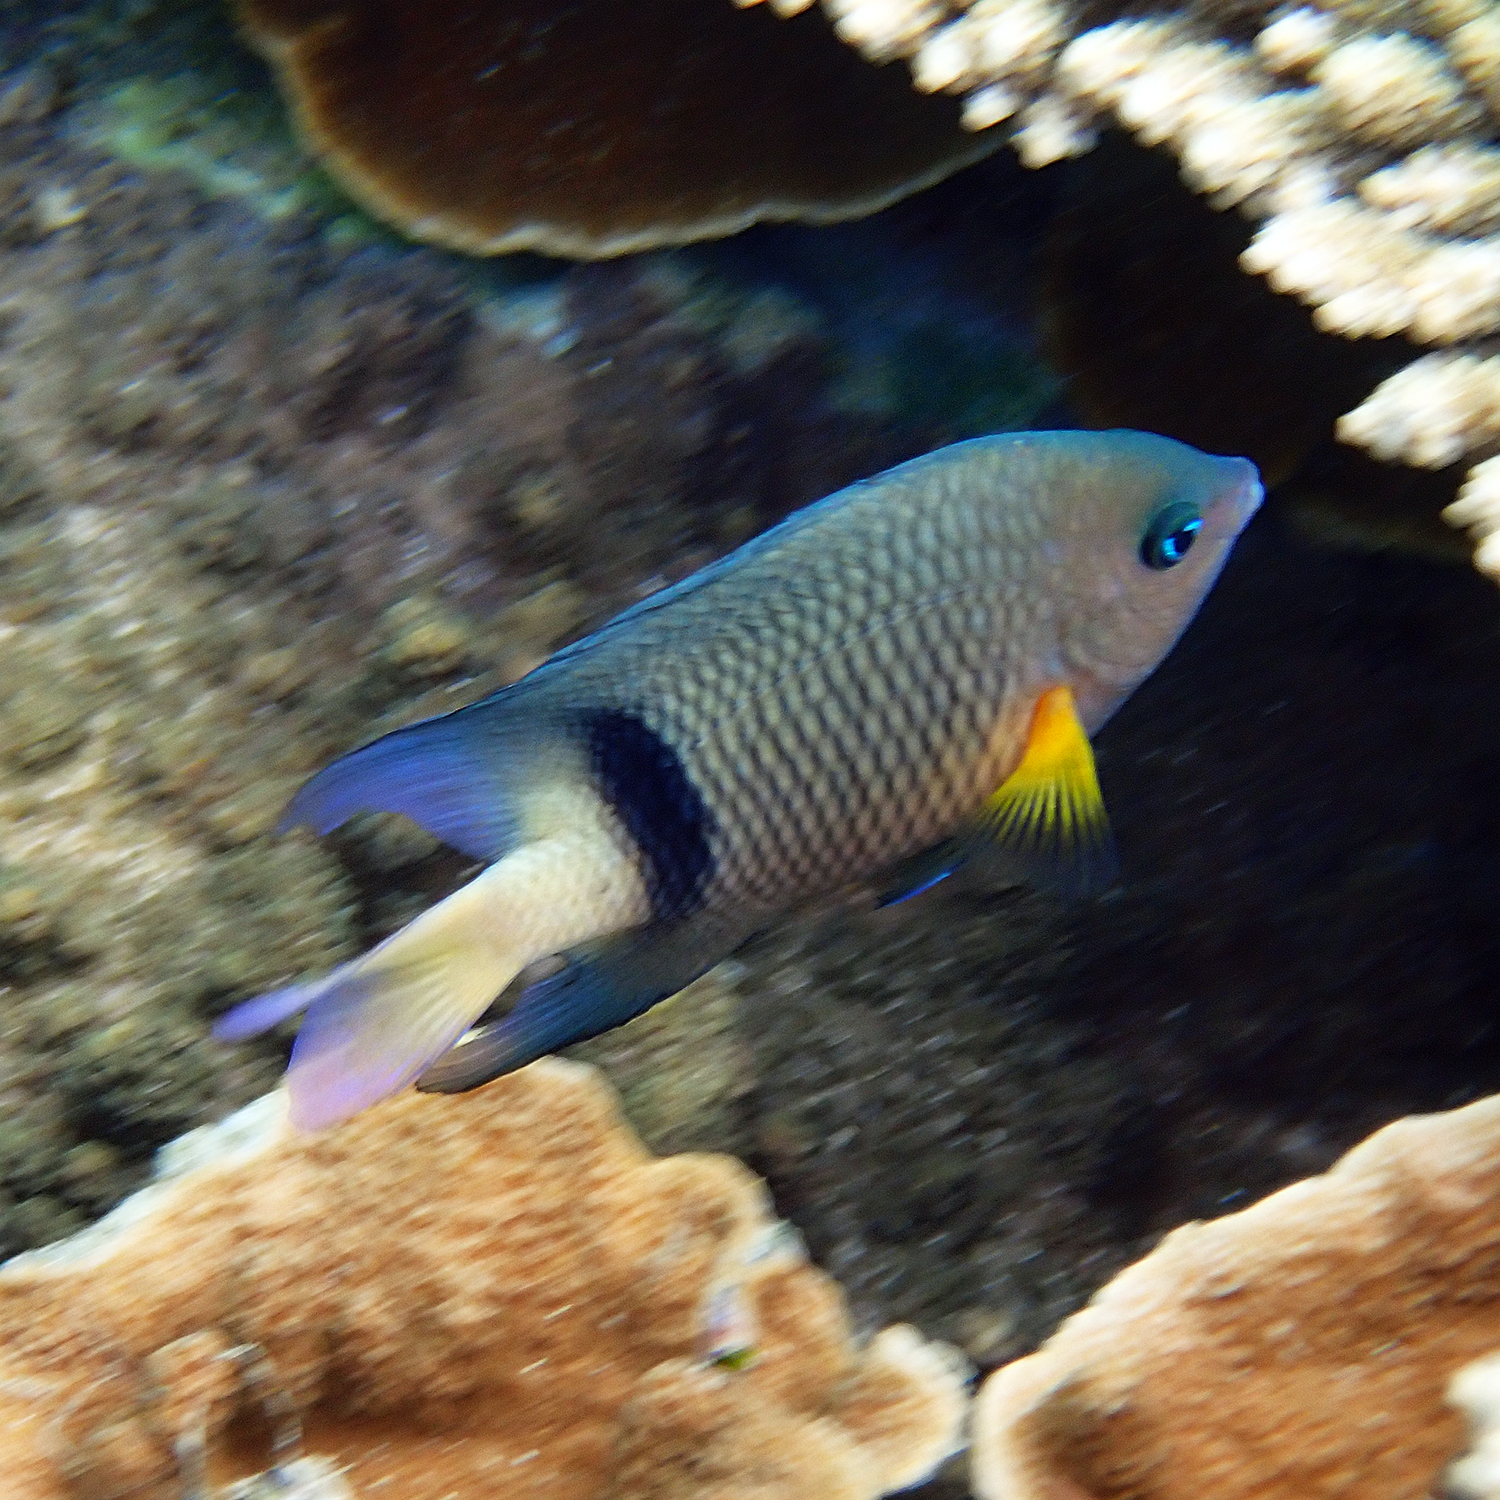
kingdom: Animalia
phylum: Chordata
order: Perciformes
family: Pomacentridae
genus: Plectroglyphidodon
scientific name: Plectroglyphidodon dickii
